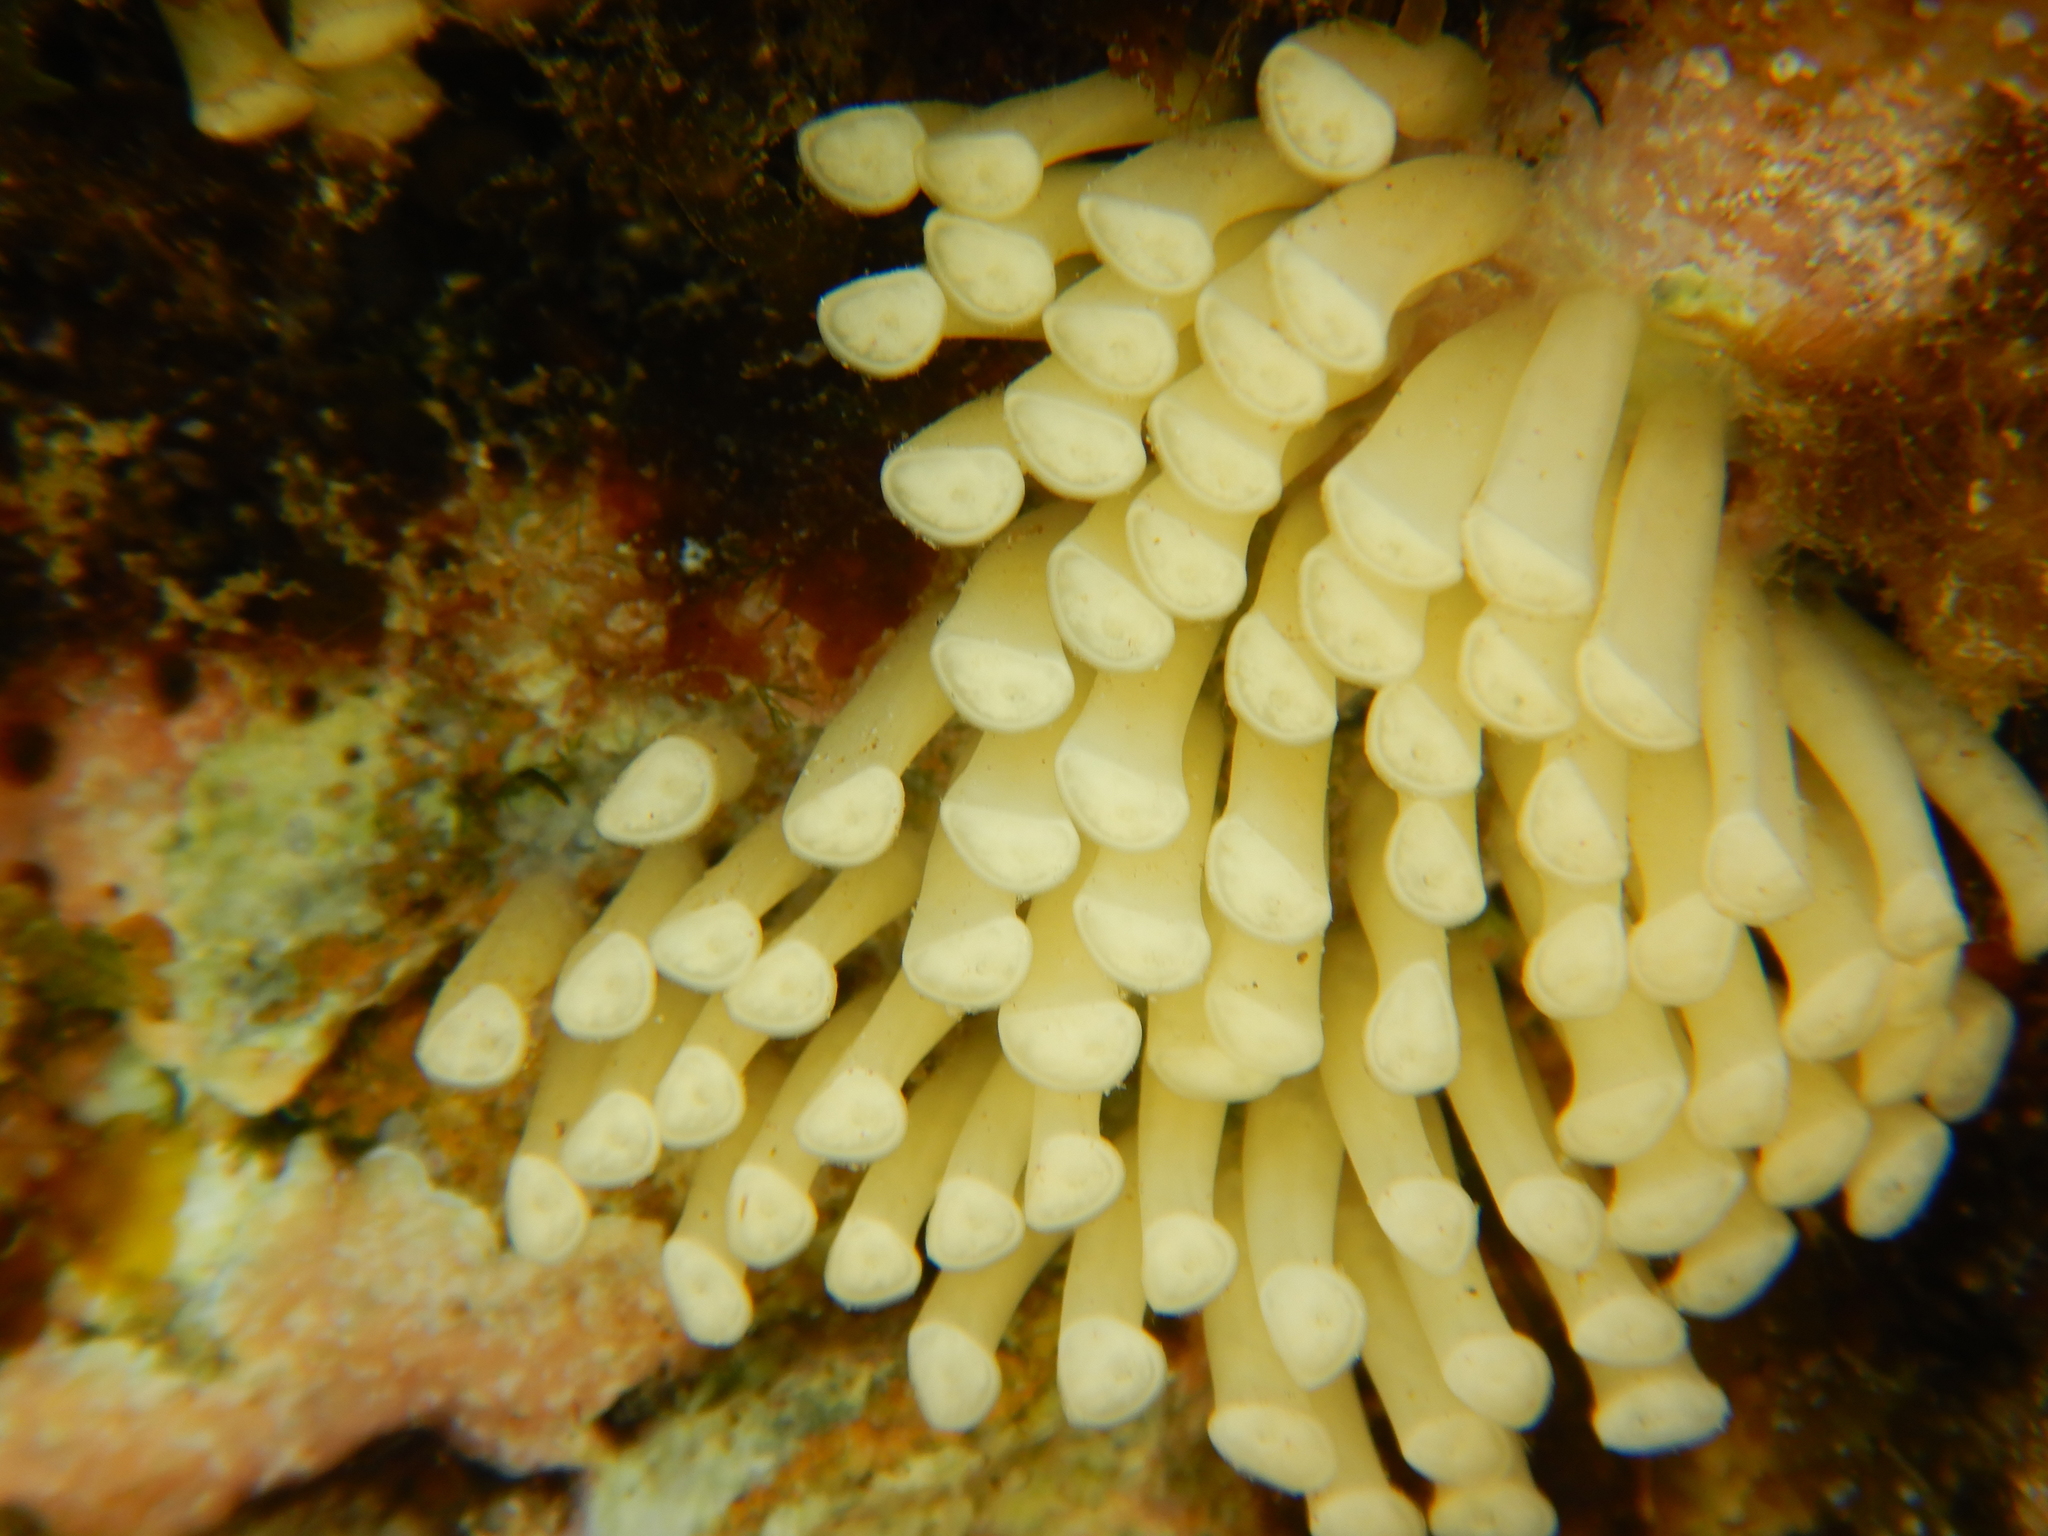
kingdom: Animalia
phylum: Mollusca
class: Gastropoda
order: Neogastropoda
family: Muricidae
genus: Stramonita
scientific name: Stramonita haemastoma
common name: Florida dog winkle
